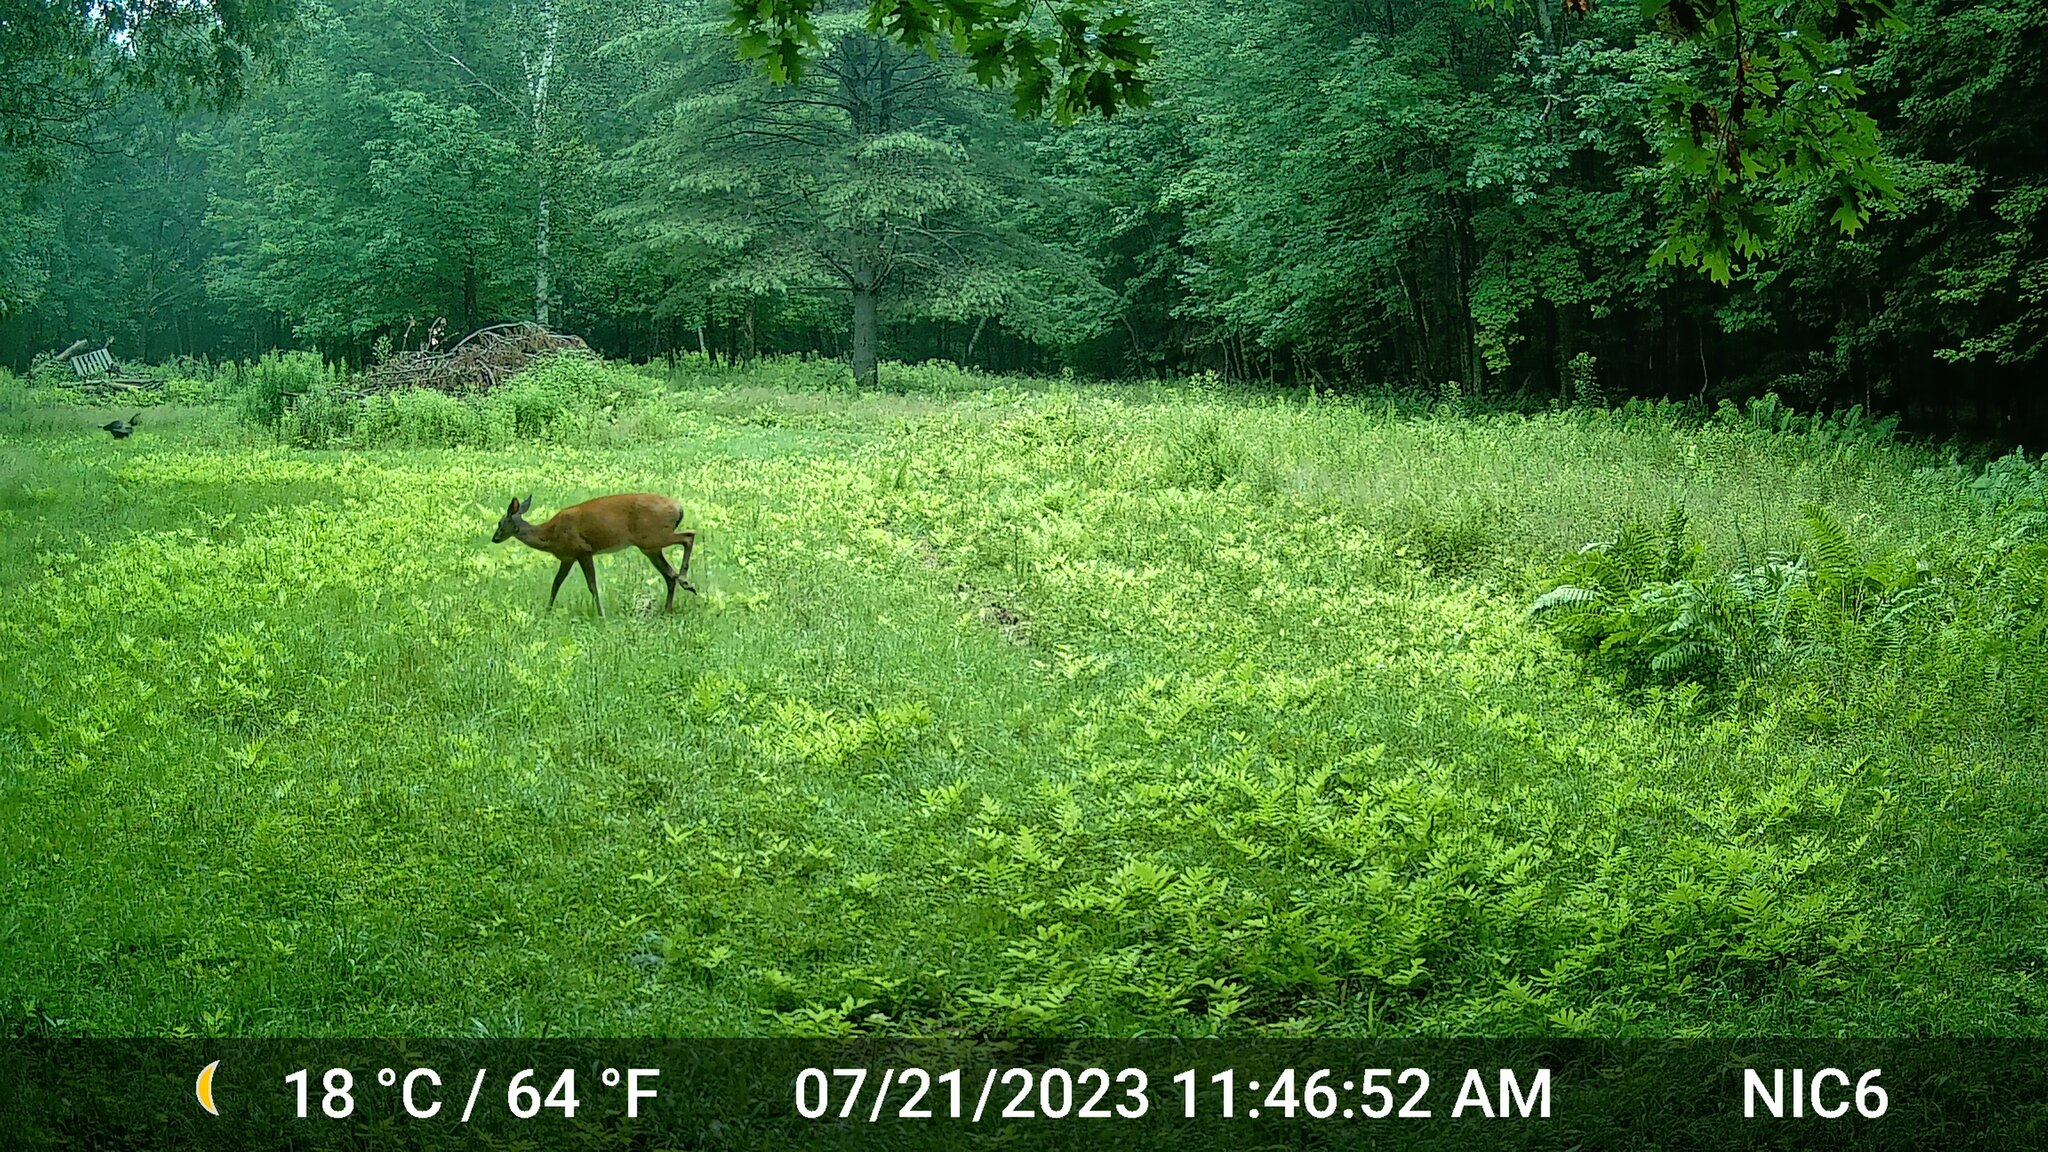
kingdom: Animalia
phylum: Chordata
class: Aves
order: Galliformes
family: Phasianidae
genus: Meleagris
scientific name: Meleagris gallopavo
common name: Wild turkey
